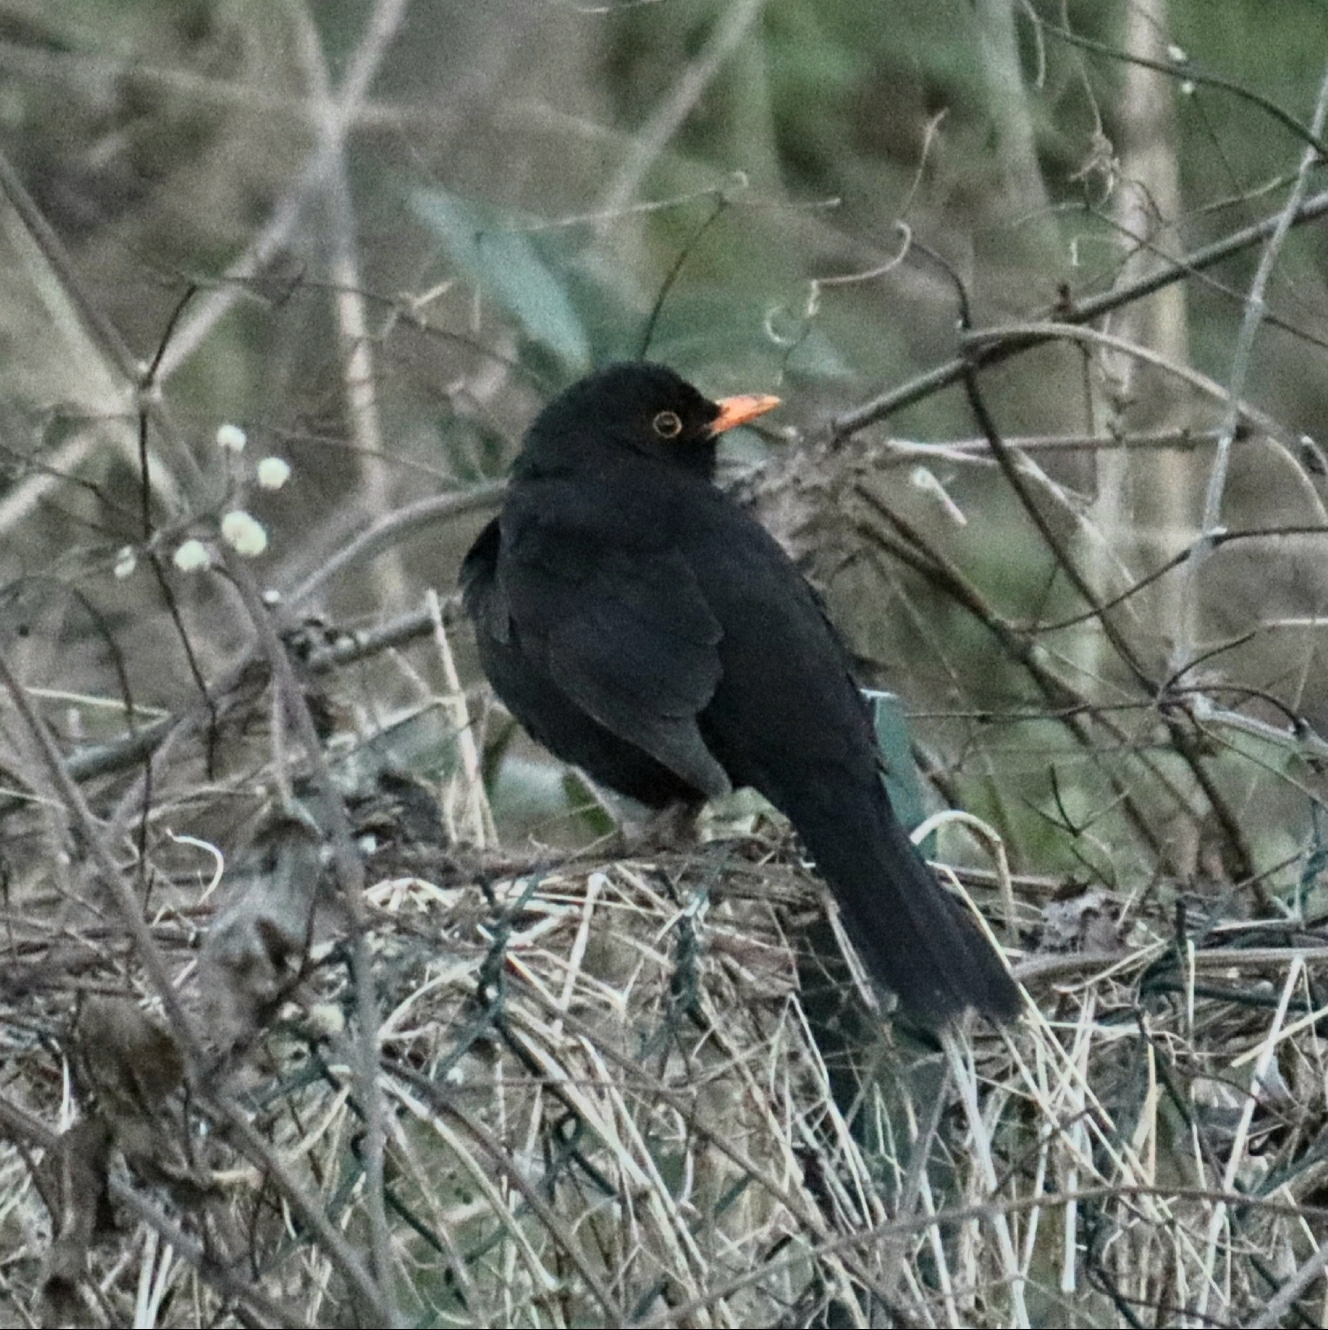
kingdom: Animalia
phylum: Chordata
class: Aves
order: Passeriformes
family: Turdidae
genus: Turdus
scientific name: Turdus merula
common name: Common blackbird
